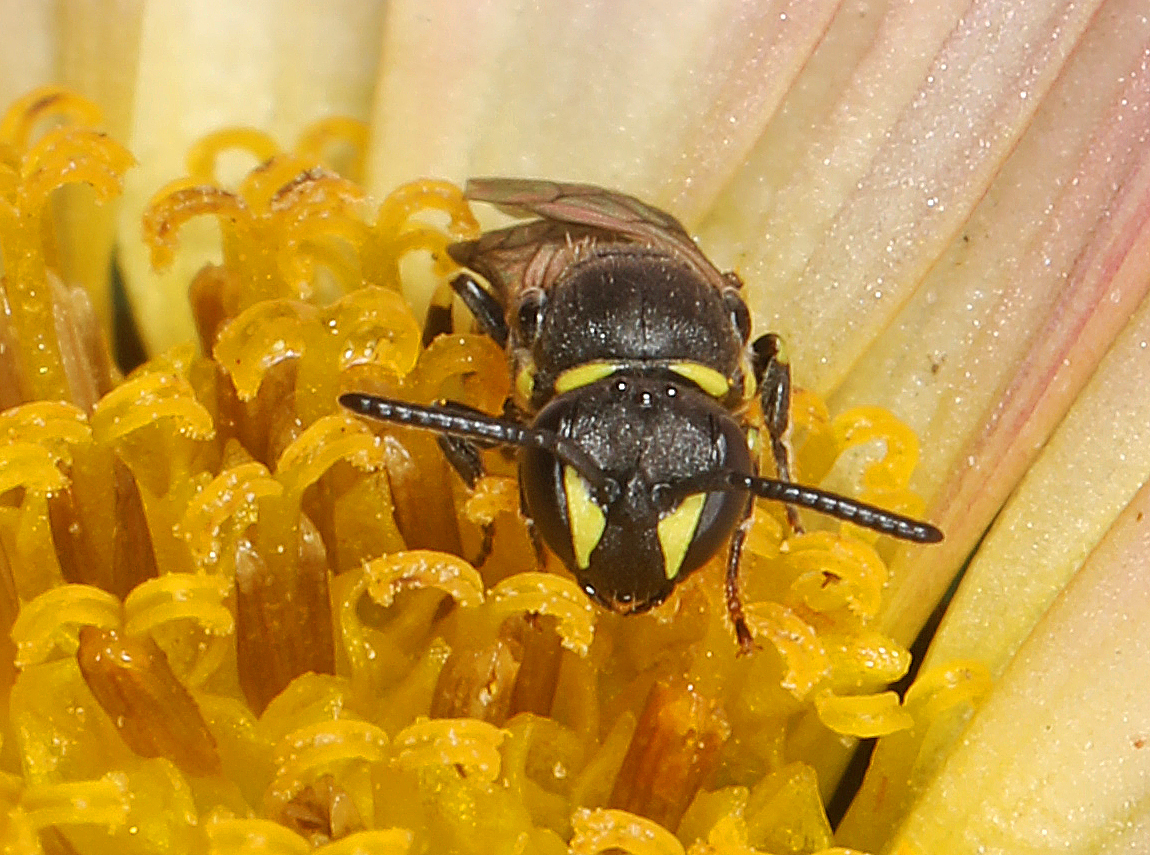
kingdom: Animalia
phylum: Arthropoda
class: Insecta
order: Hymenoptera
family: Colletidae
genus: Hylaeus
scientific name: Hylaeus modestus
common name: Yellow-faced bee
